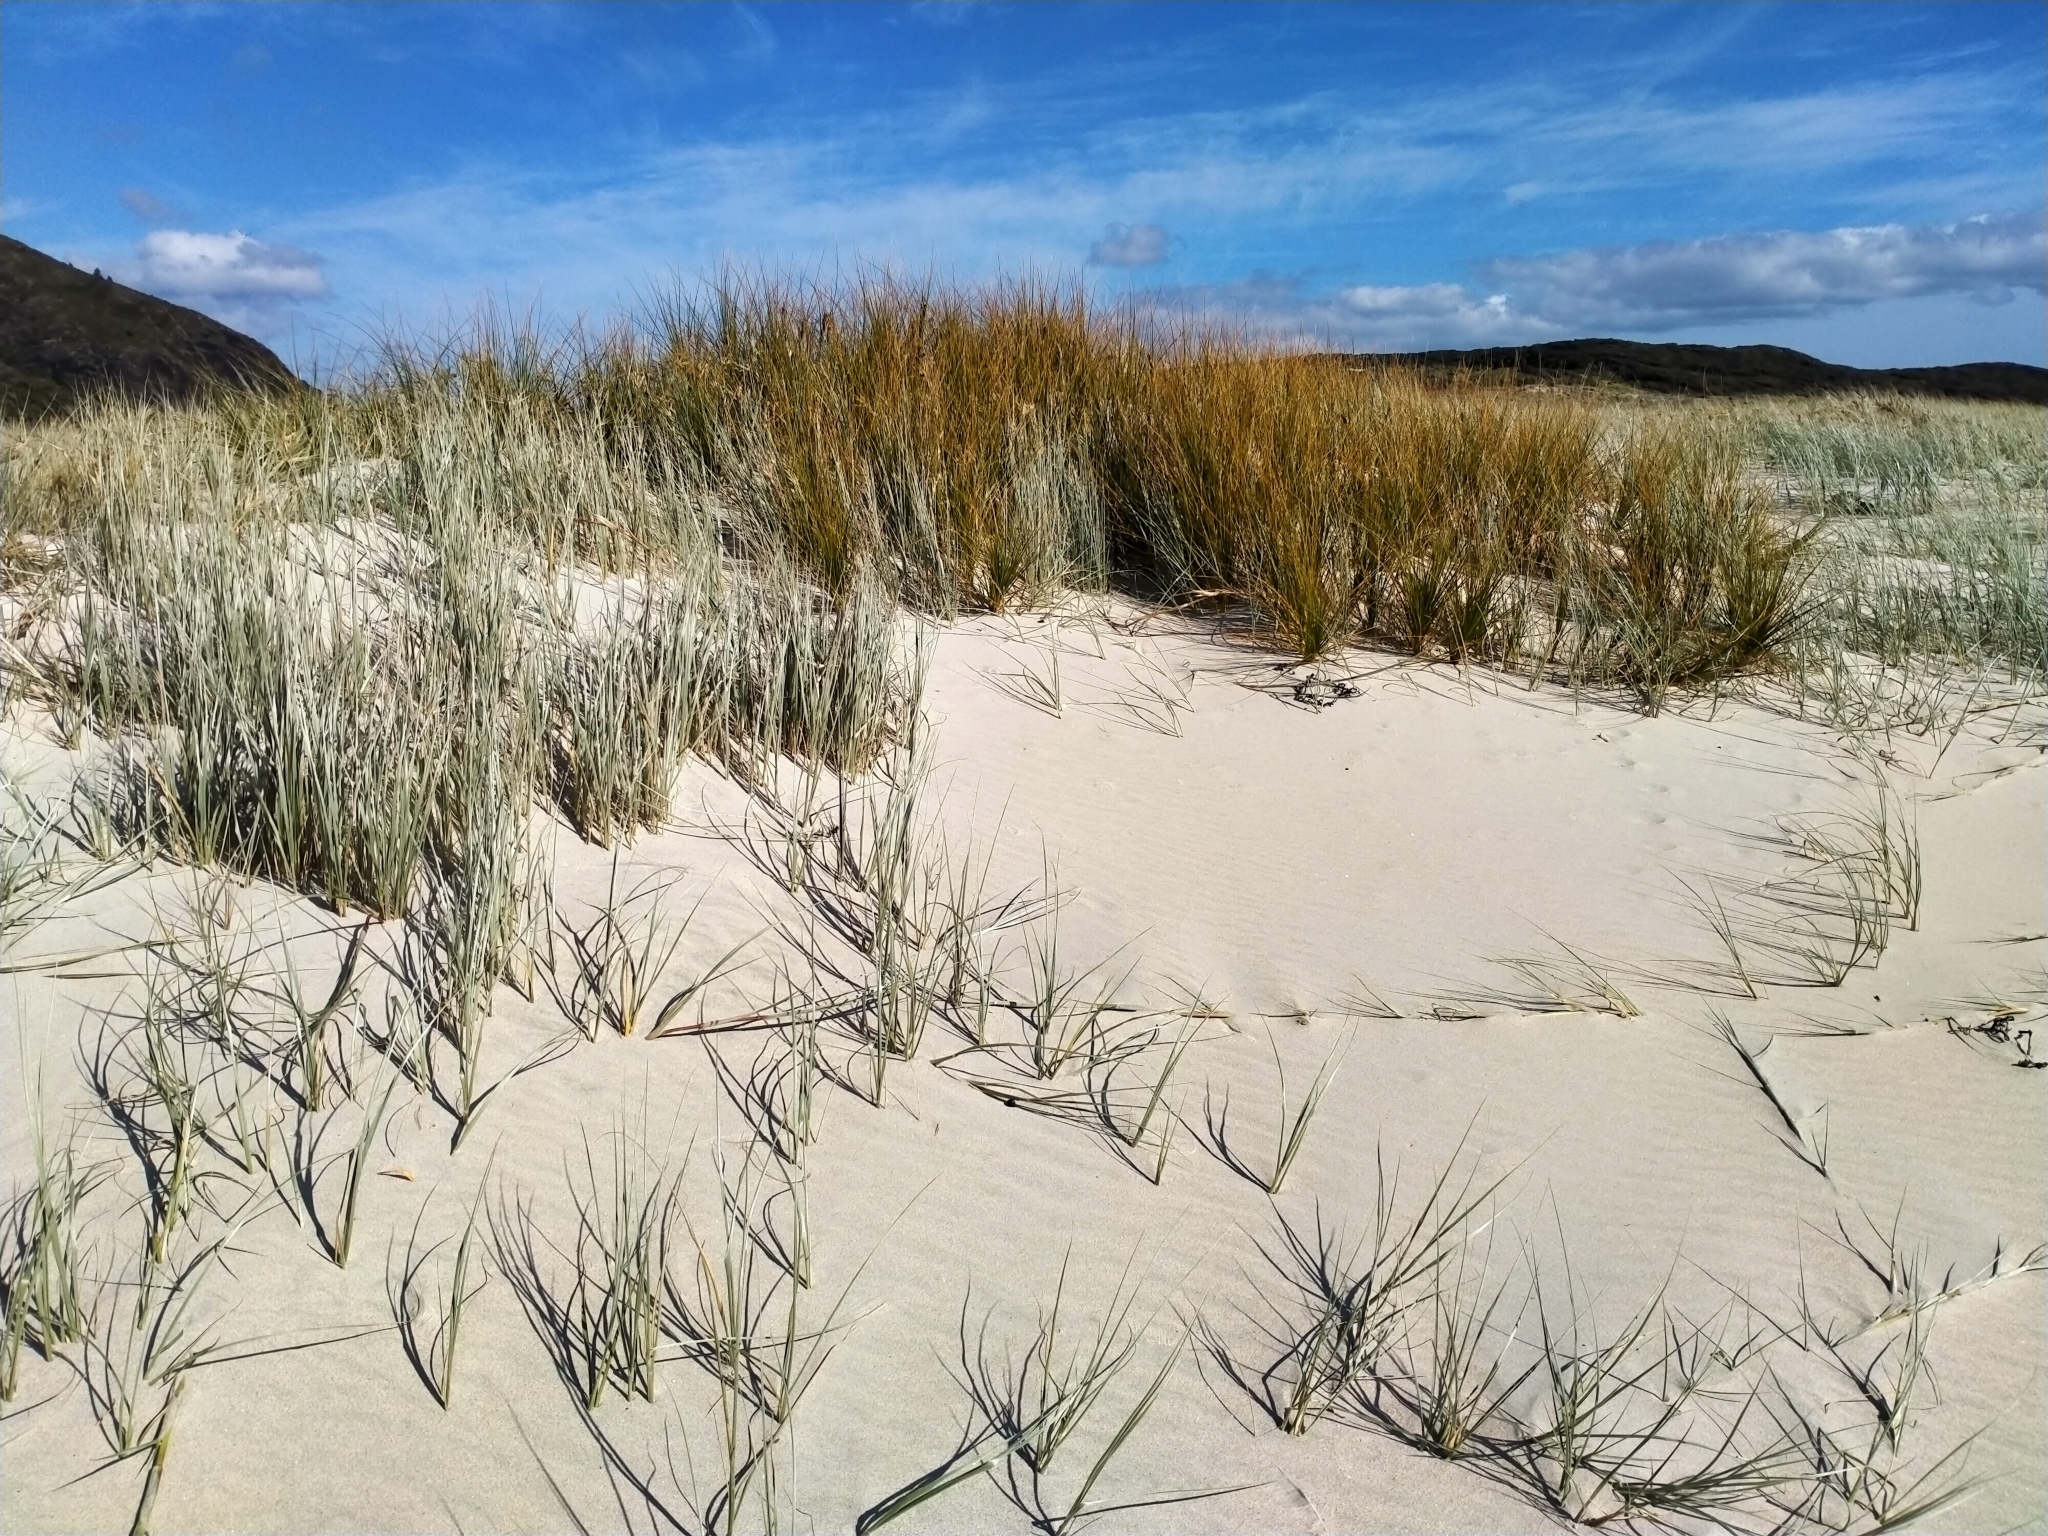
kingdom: Plantae
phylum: Tracheophyta
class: Liliopsida
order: Poales
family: Cyperaceae
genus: Ficinia
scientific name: Ficinia spiralis
